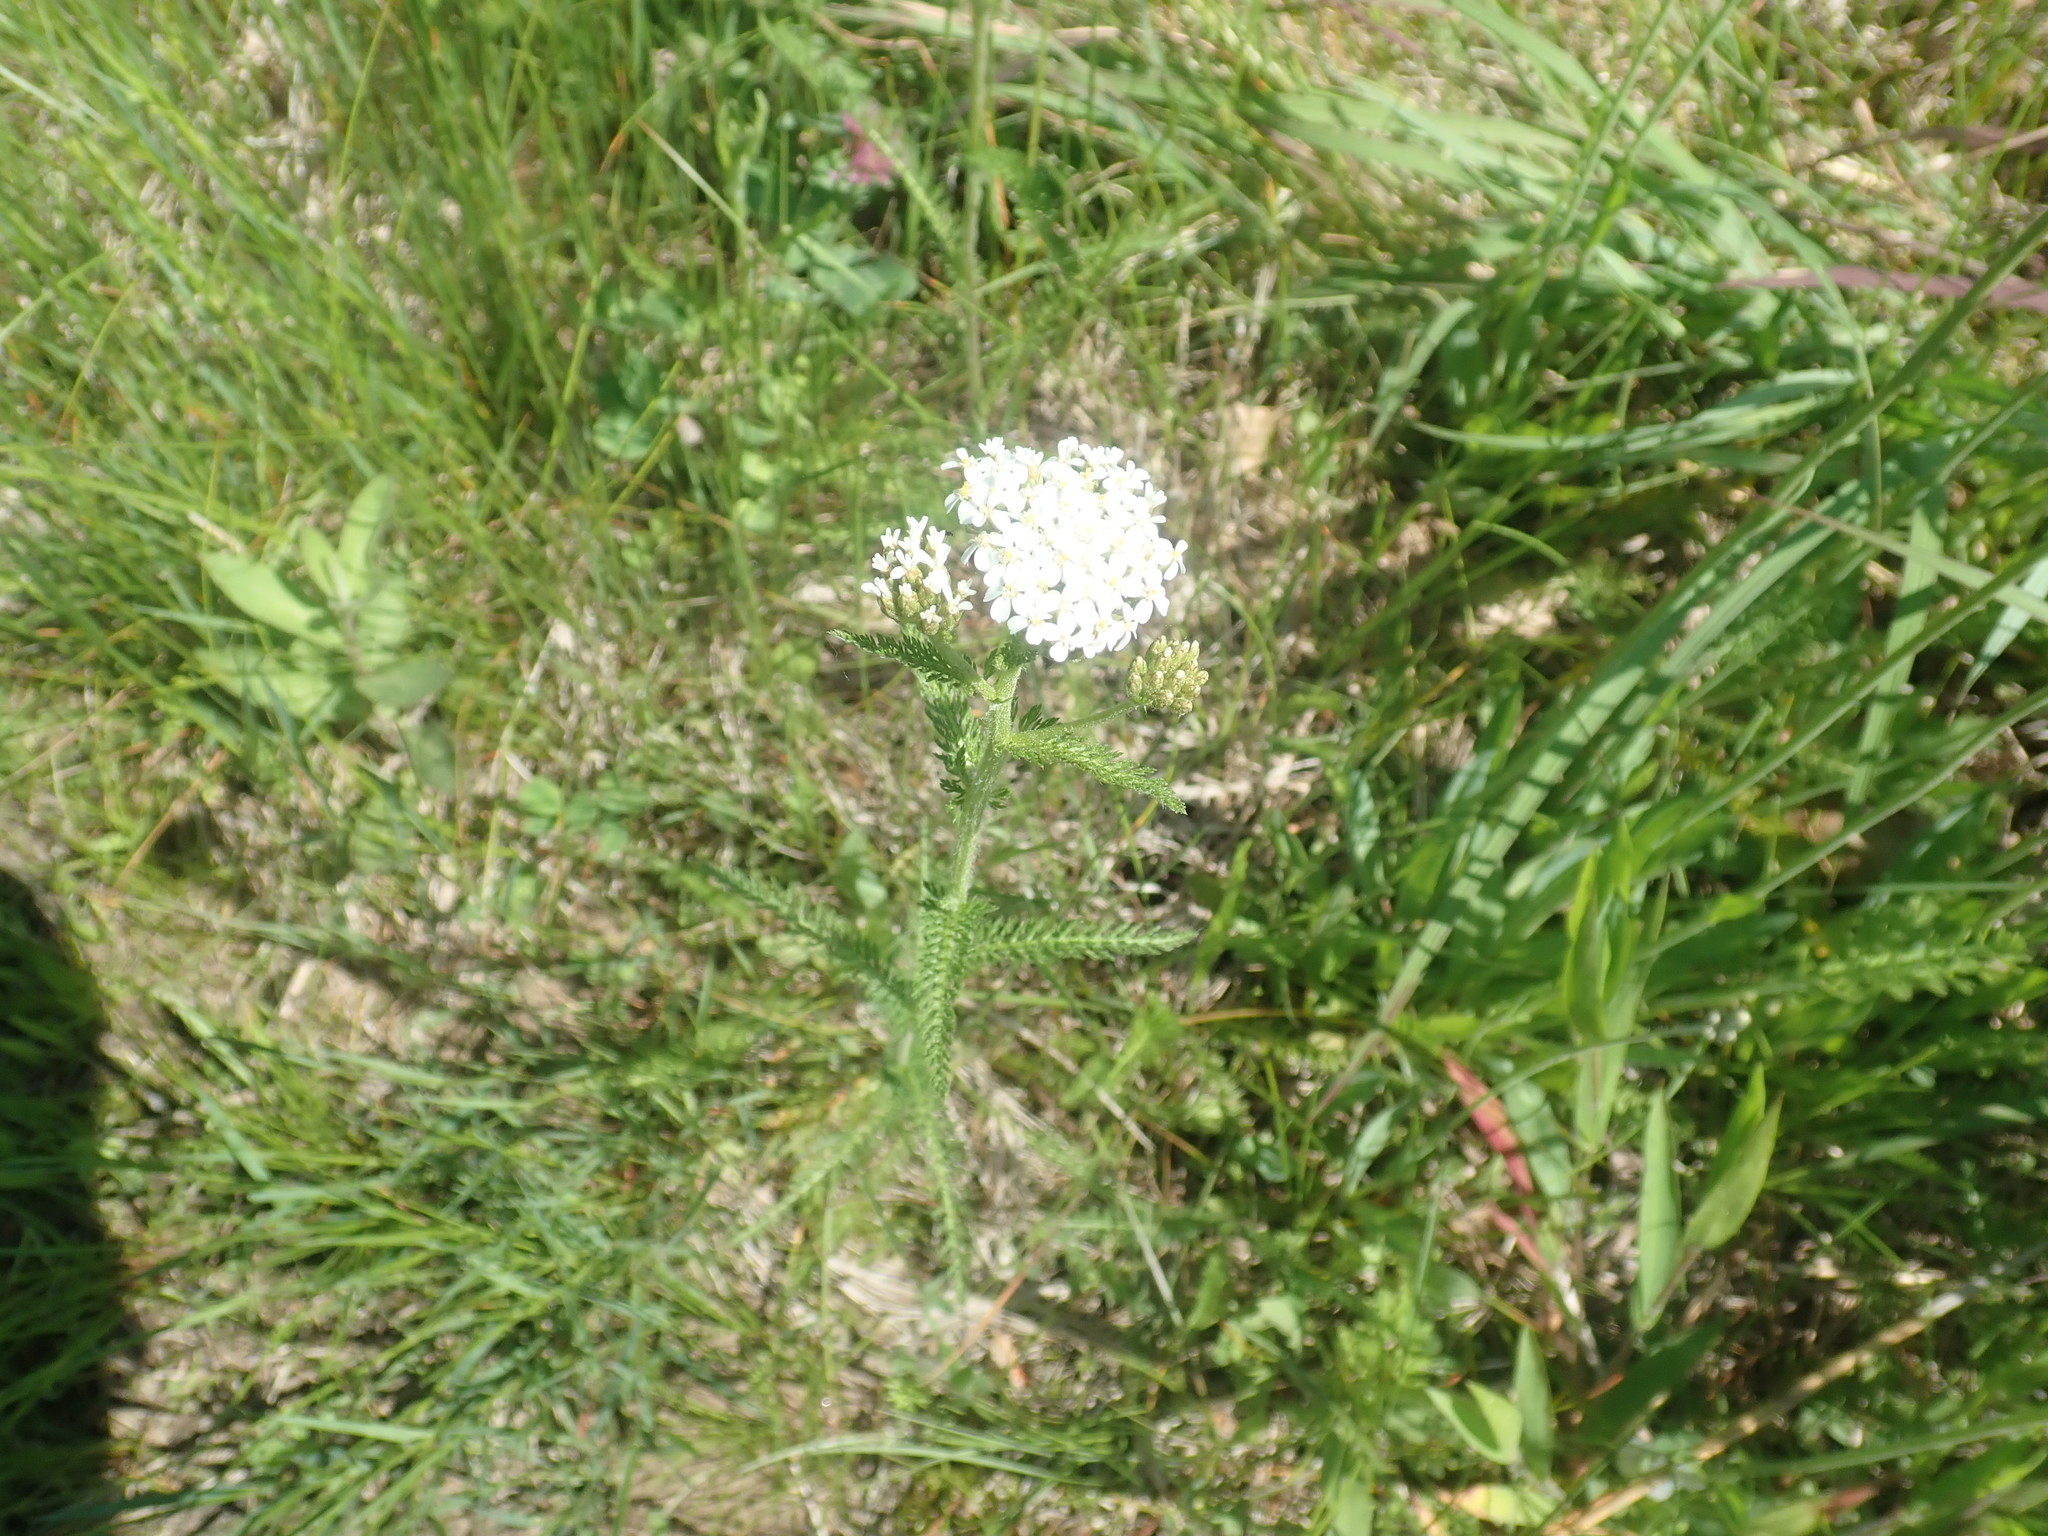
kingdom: Plantae
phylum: Tracheophyta
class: Magnoliopsida
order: Asterales
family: Asteraceae
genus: Achillea
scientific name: Achillea millefolium
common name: Yarrow
